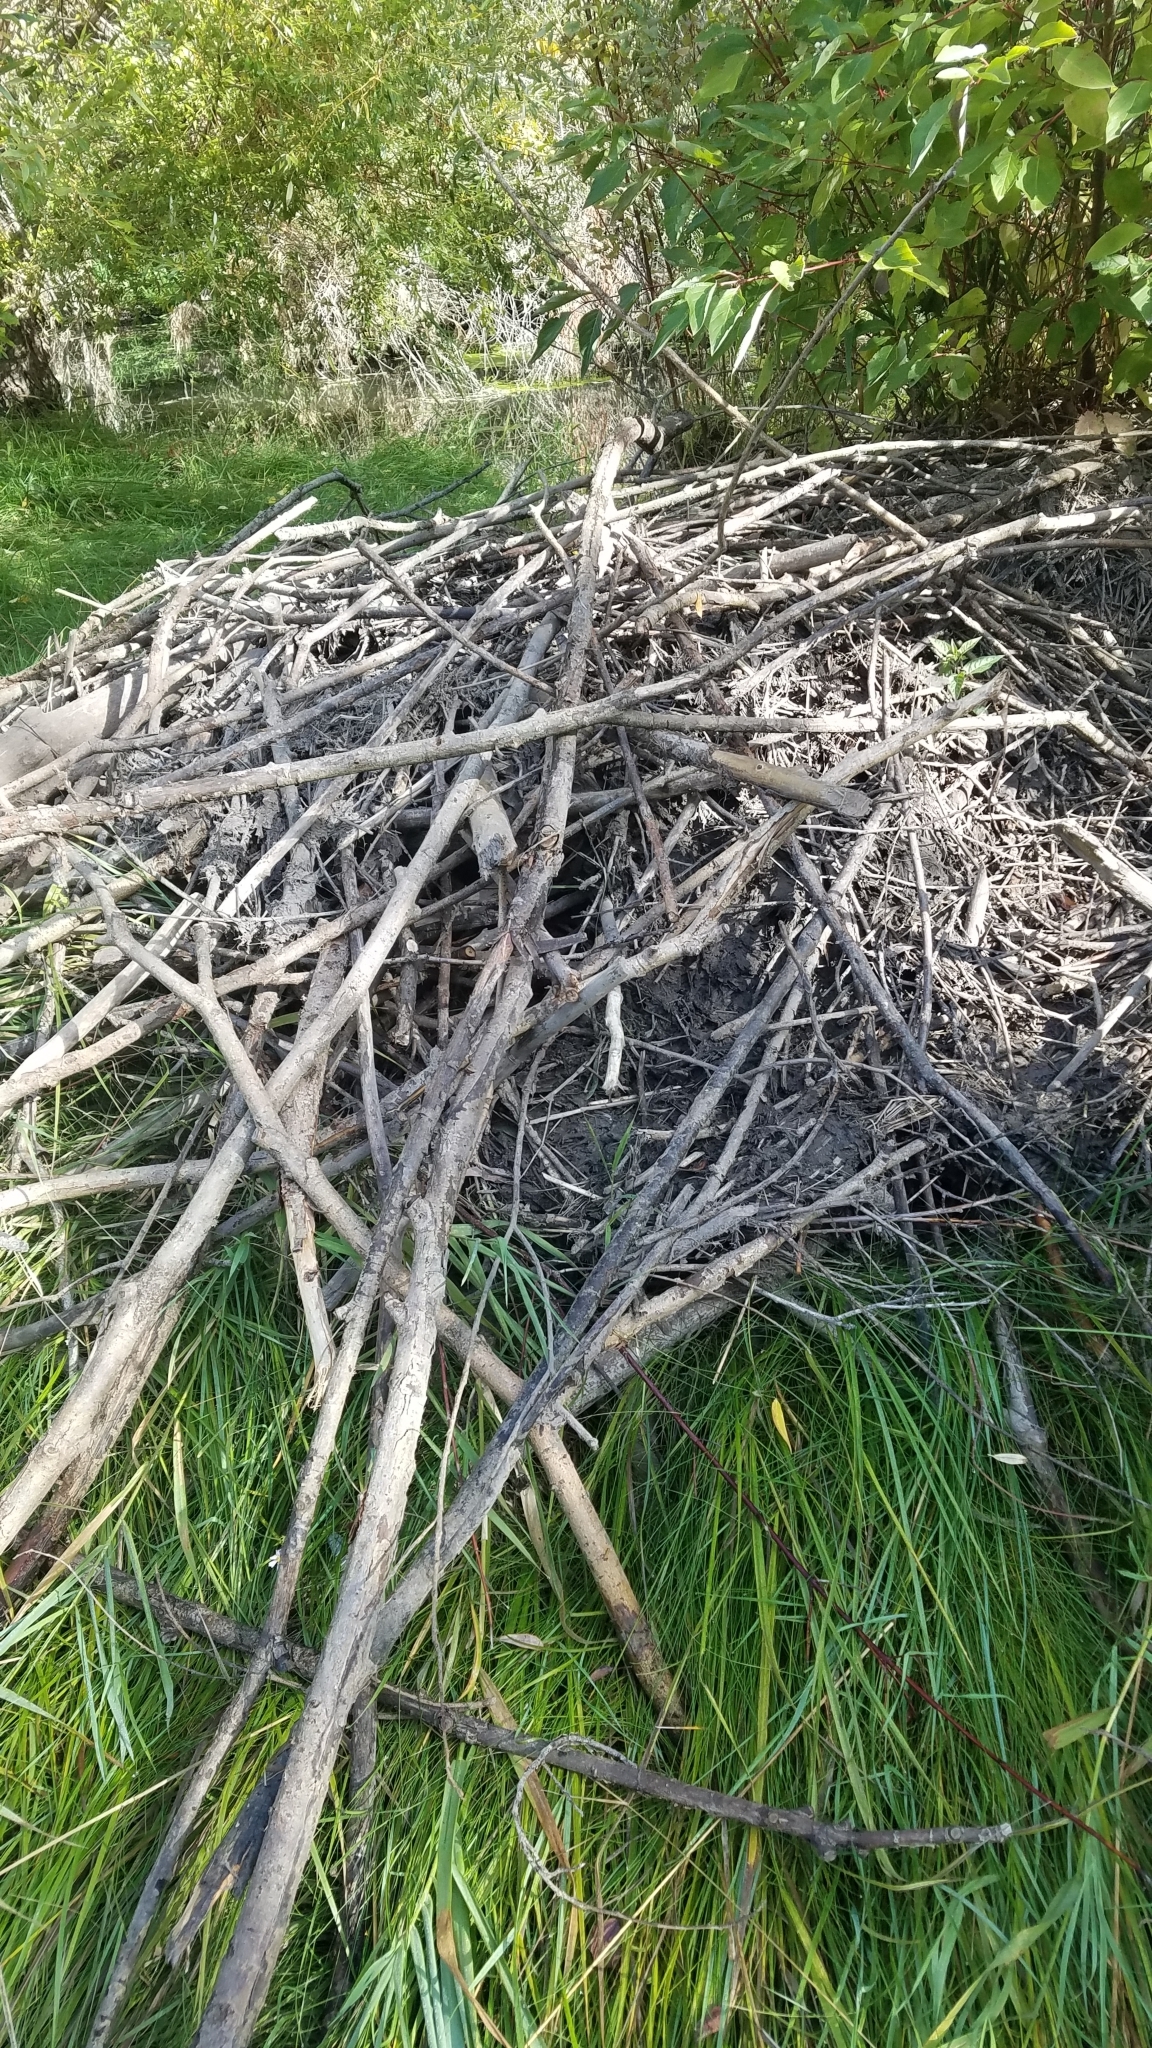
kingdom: Animalia
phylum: Chordata
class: Mammalia
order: Rodentia
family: Castoridae
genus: Castor
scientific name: Castor canadensis
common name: American beaver
